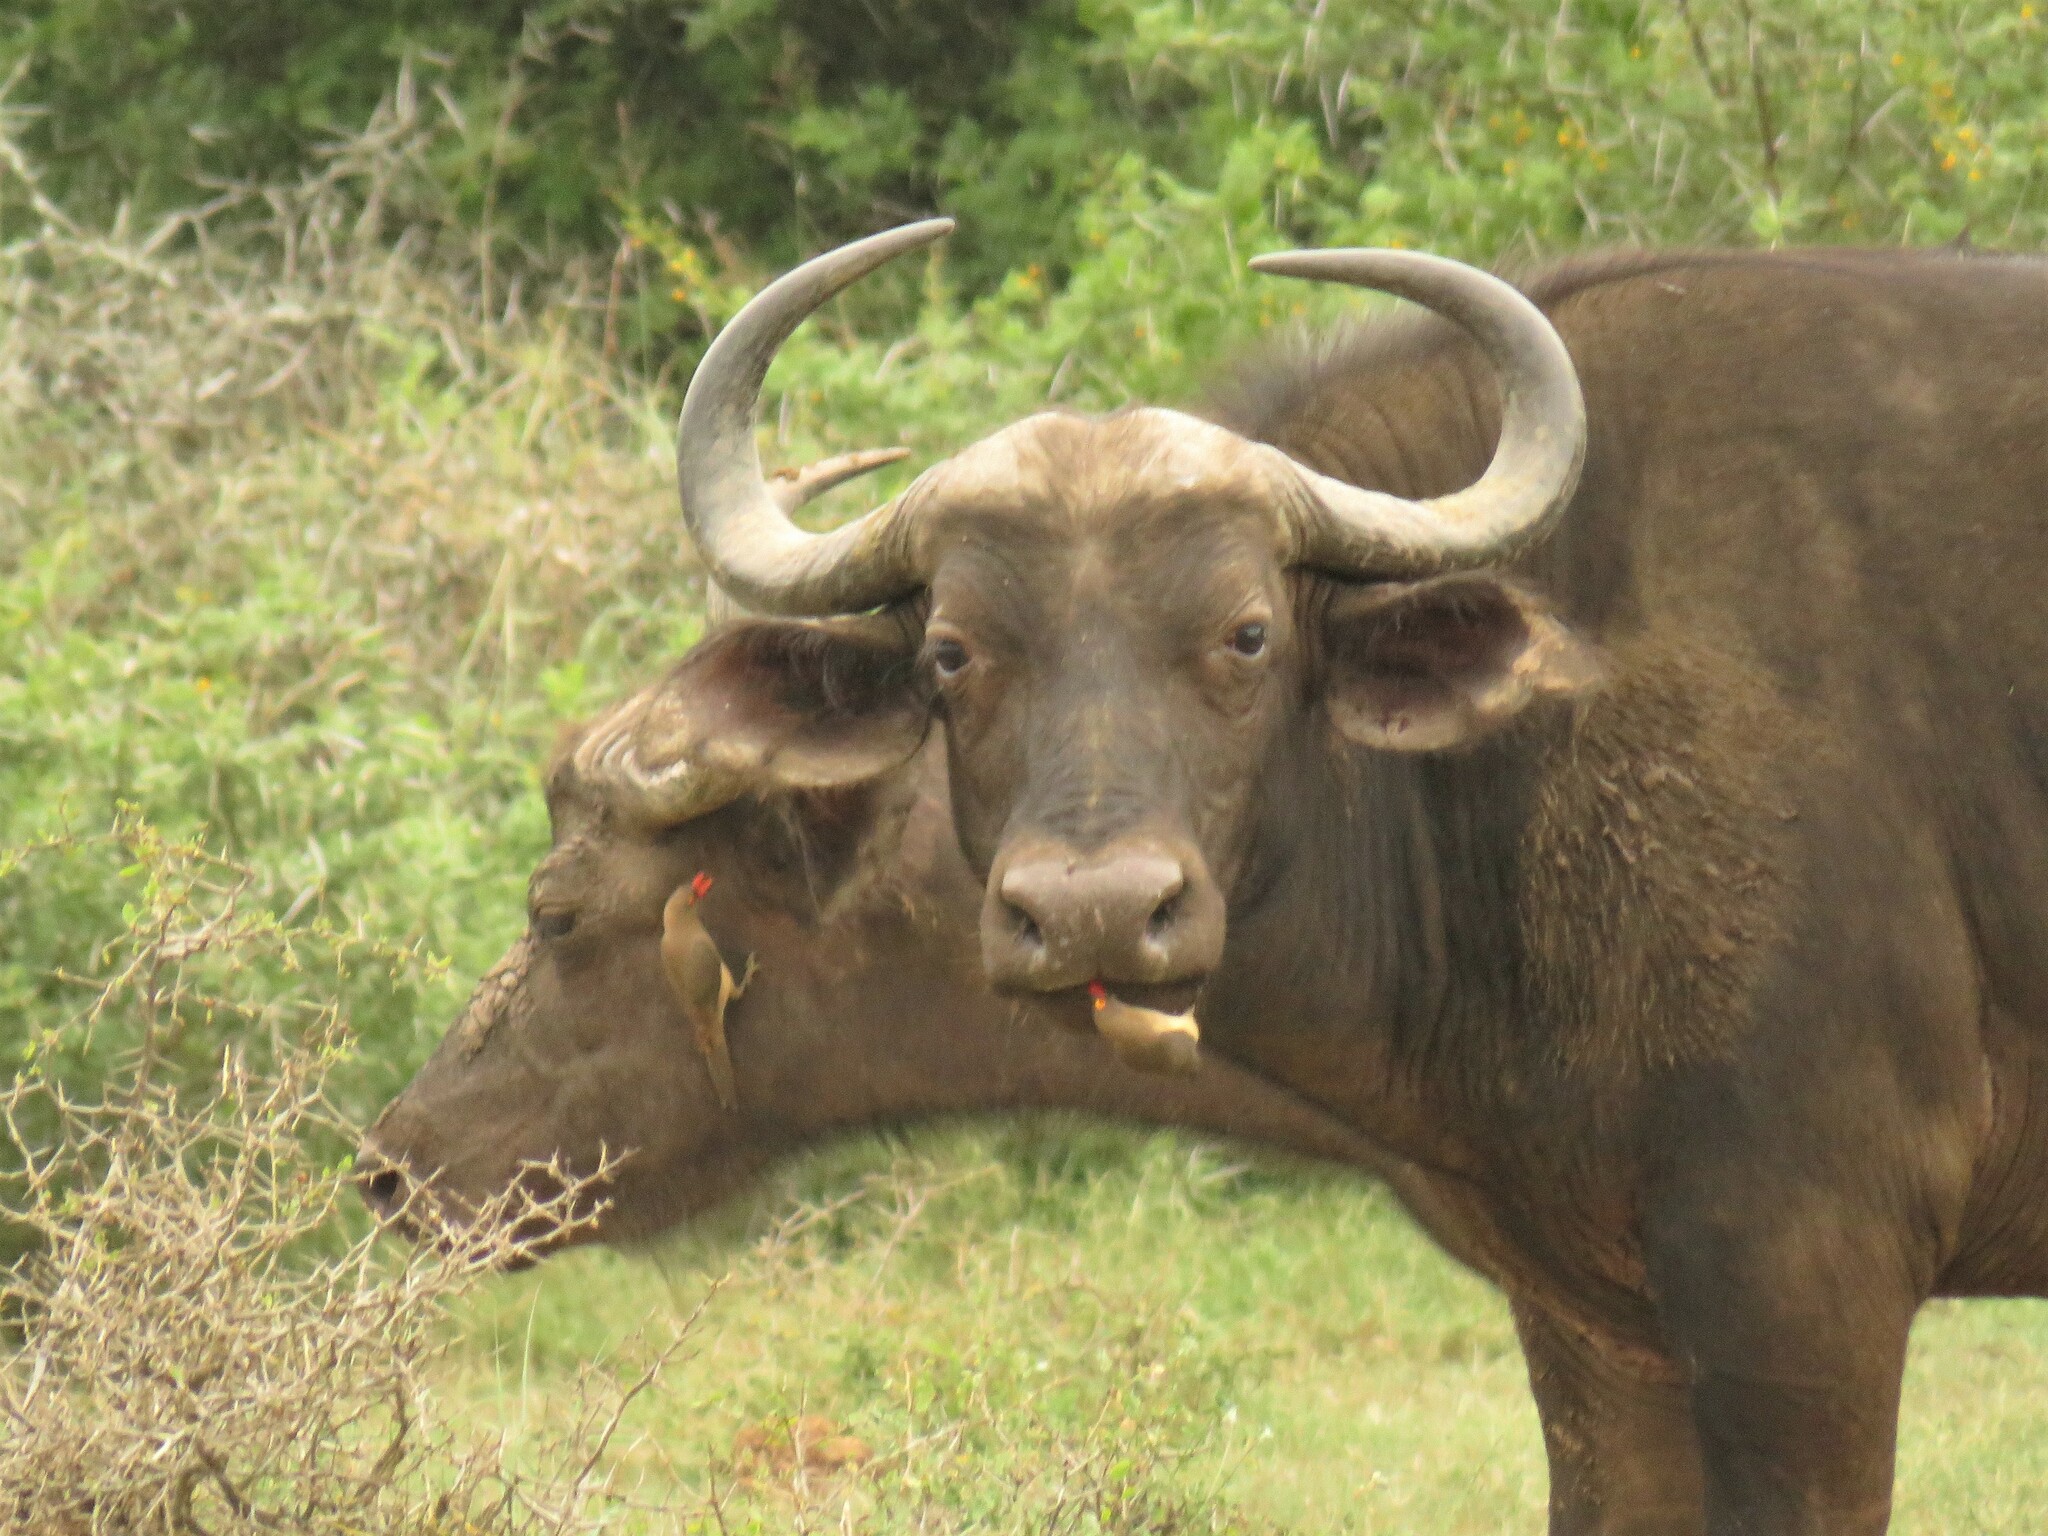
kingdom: Animalia
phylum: Chordata
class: Aves
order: Passeriformes
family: Buphagidae
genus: Buphagus
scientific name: Buphagus erythrorhynchus
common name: Red-billed oxpecker
